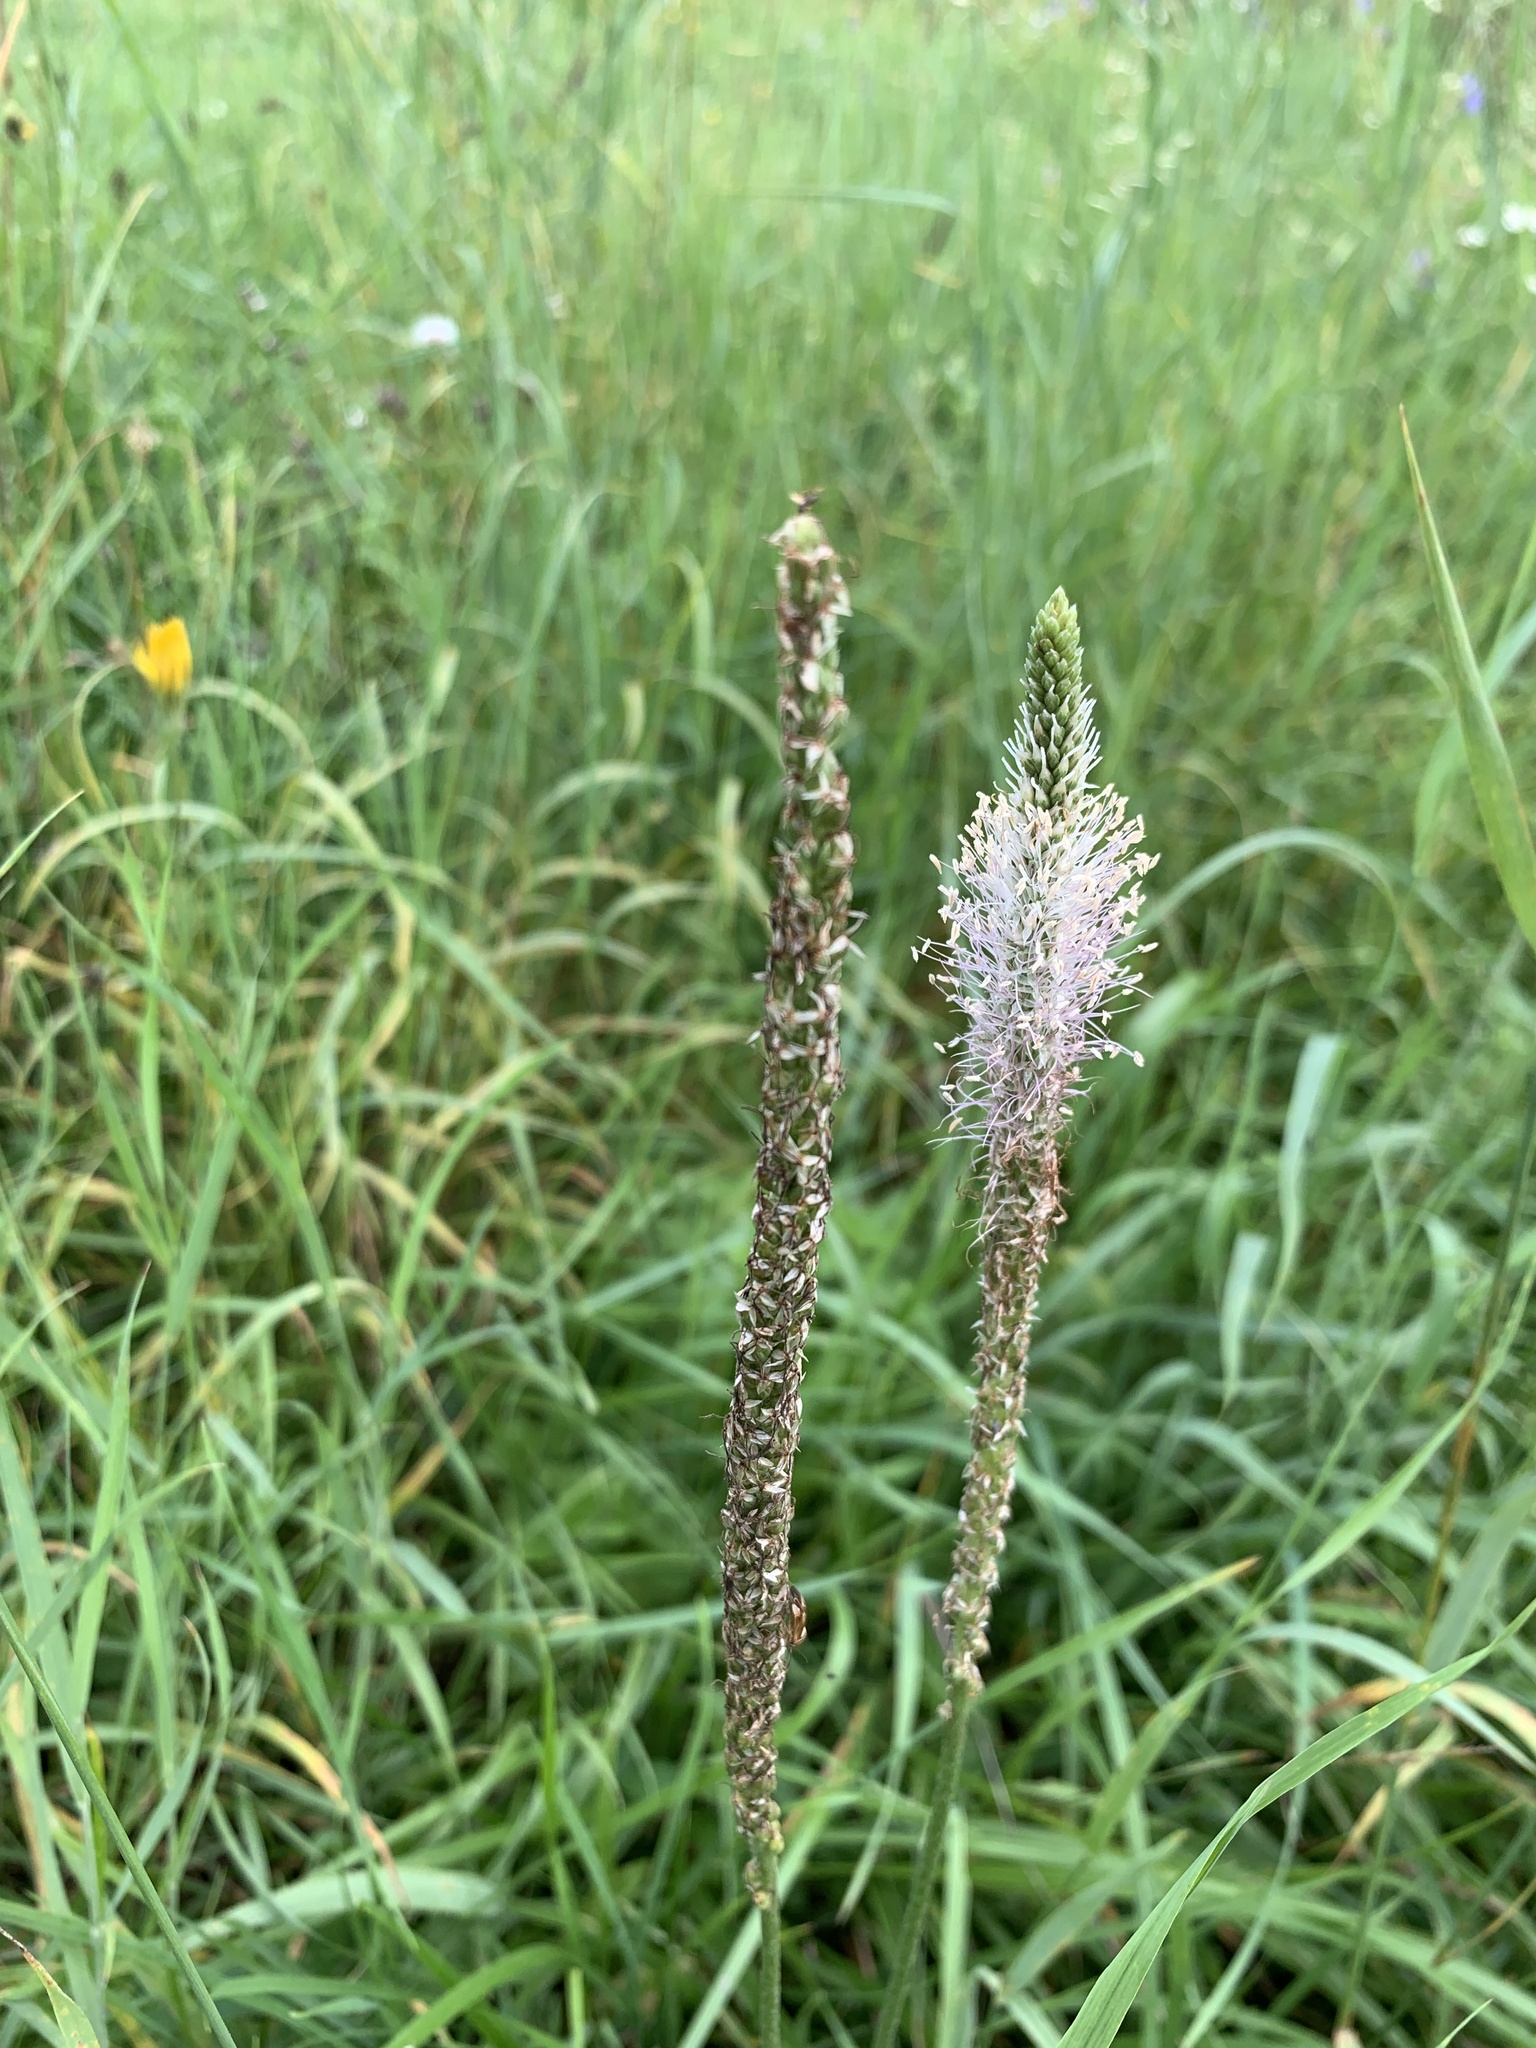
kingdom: Plantae
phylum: Tracheophyta
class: Magnoliopsida
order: Lamiales
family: Plantaginaceae
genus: Plantago
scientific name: Plantago media
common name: Hoary plantain
